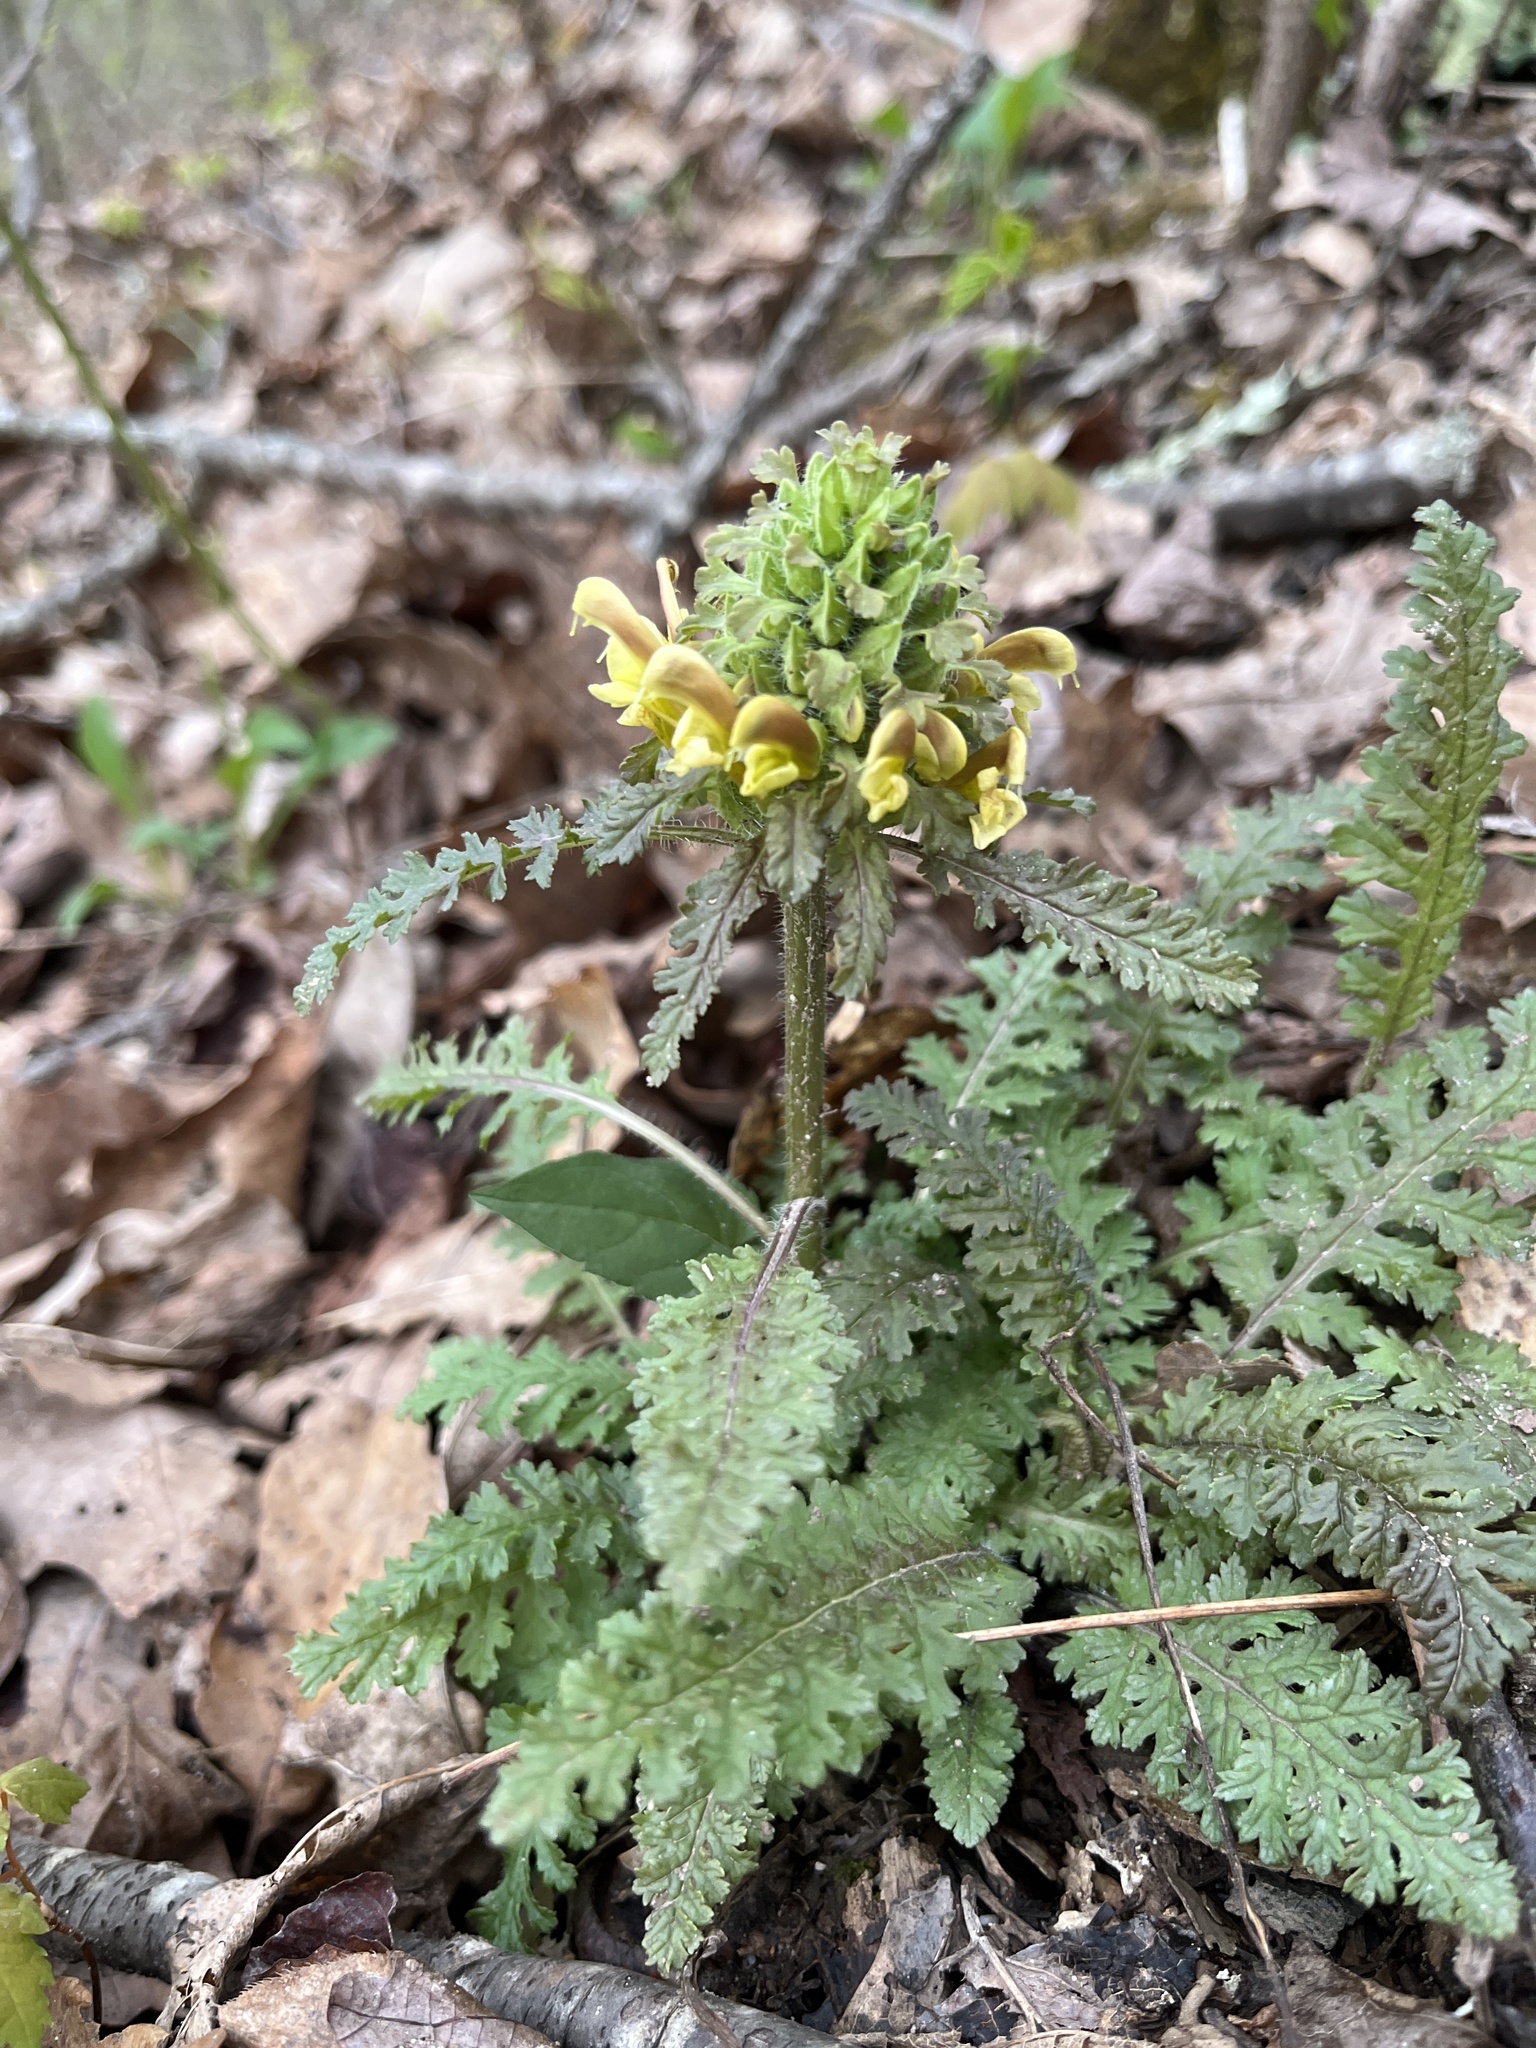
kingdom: Plantae
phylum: Tracheophyta
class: Magnoliopsida
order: Lamiales
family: Orobanchaceae
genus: Pedicularis
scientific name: Pedicularis canadensis
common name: Early lousewort
